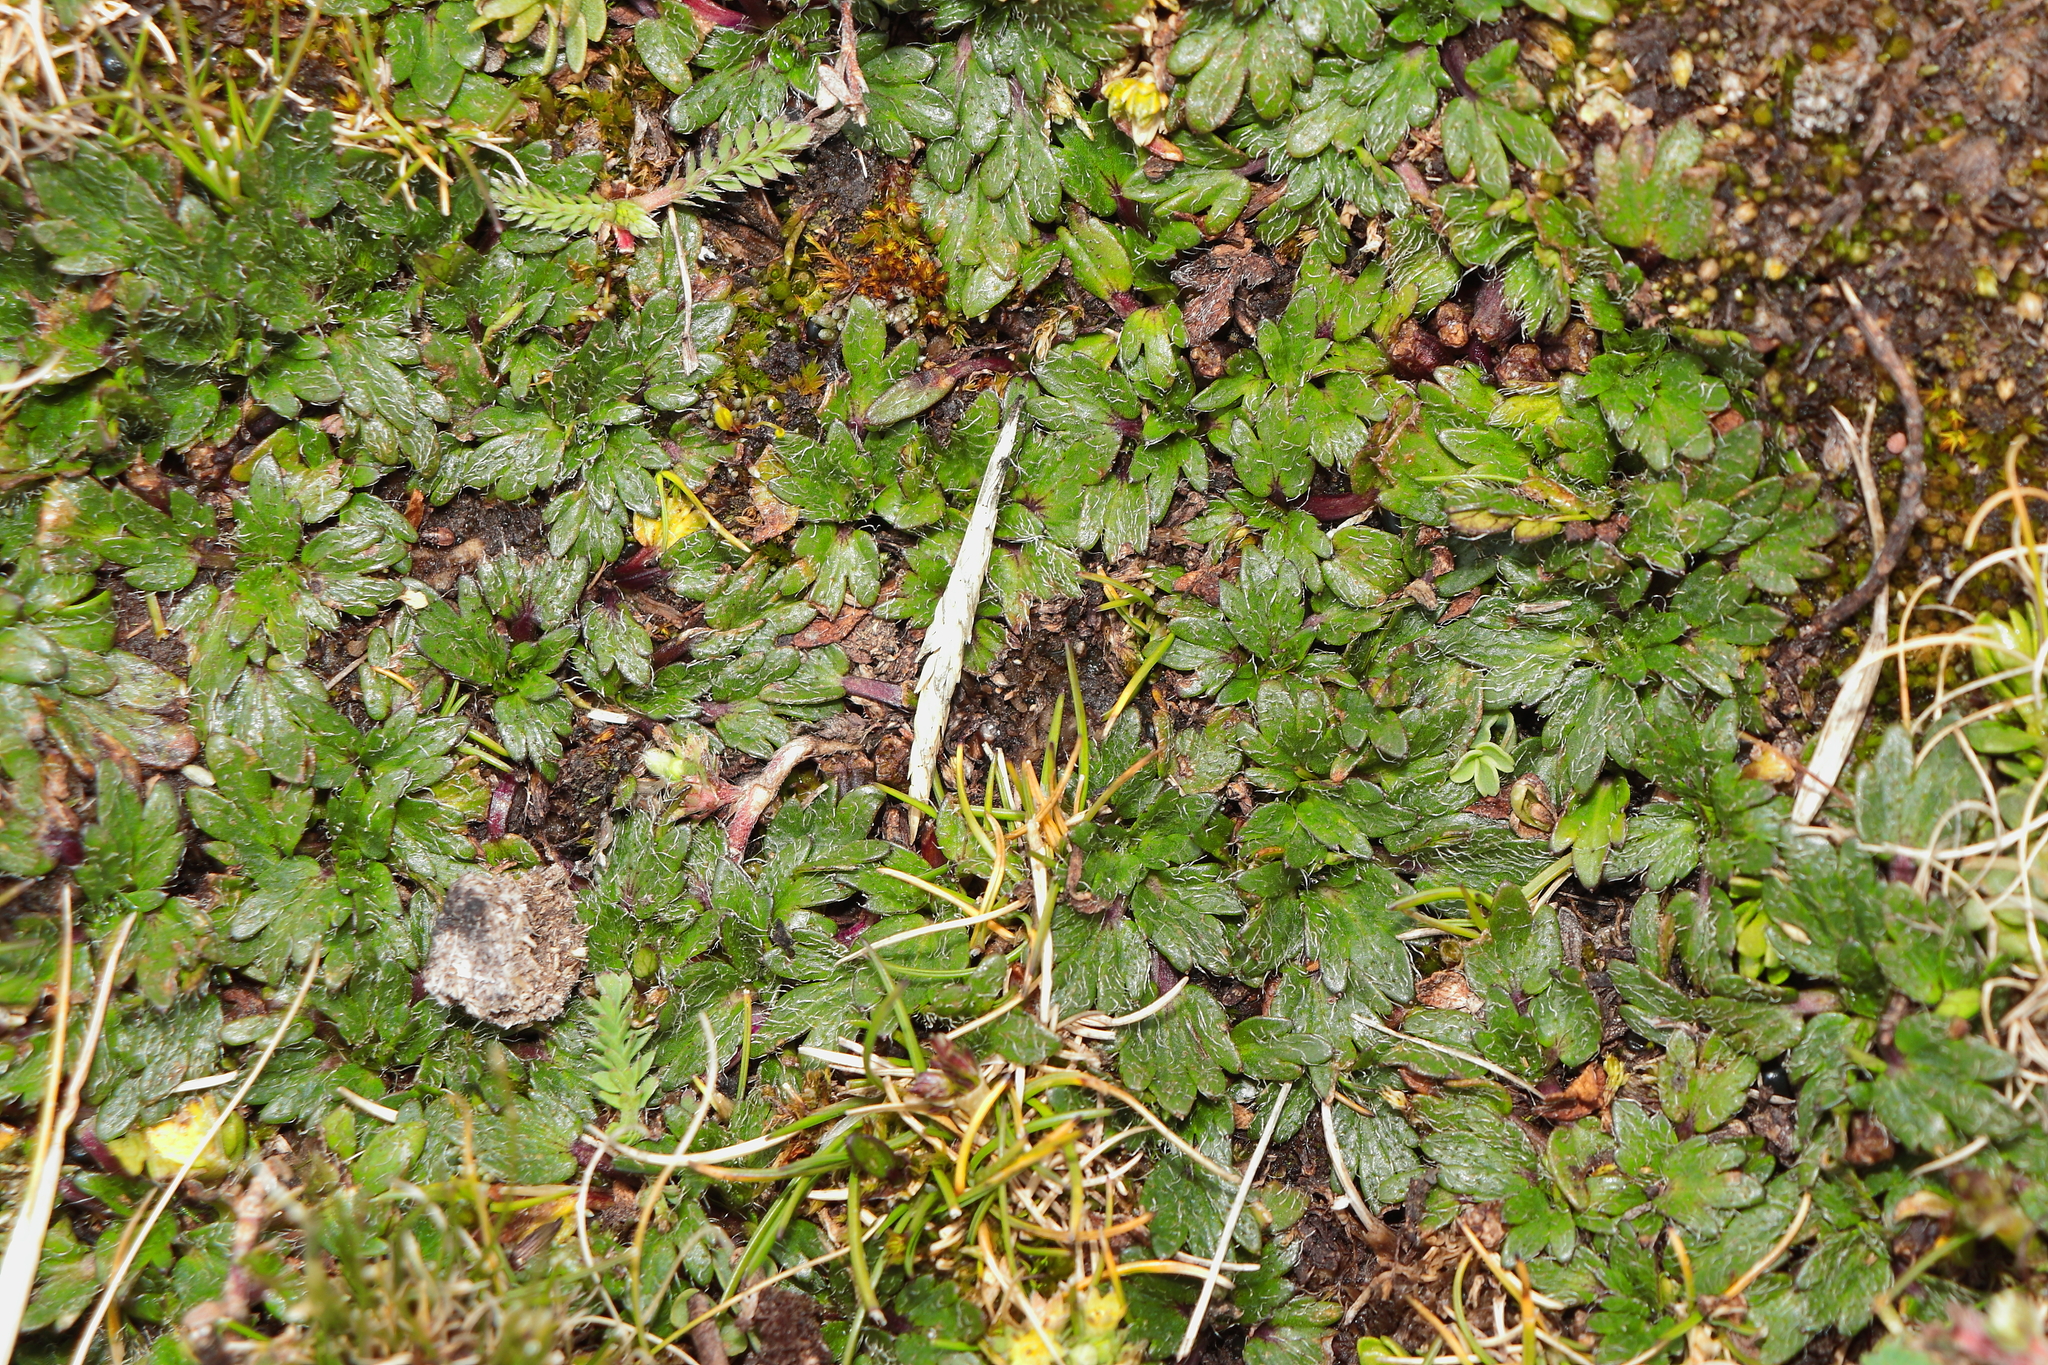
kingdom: Plantae
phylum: Tracheophyta
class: Magnoliopsida
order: Apiales
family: Apiaceae
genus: Azorella
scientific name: Azorella crenata
